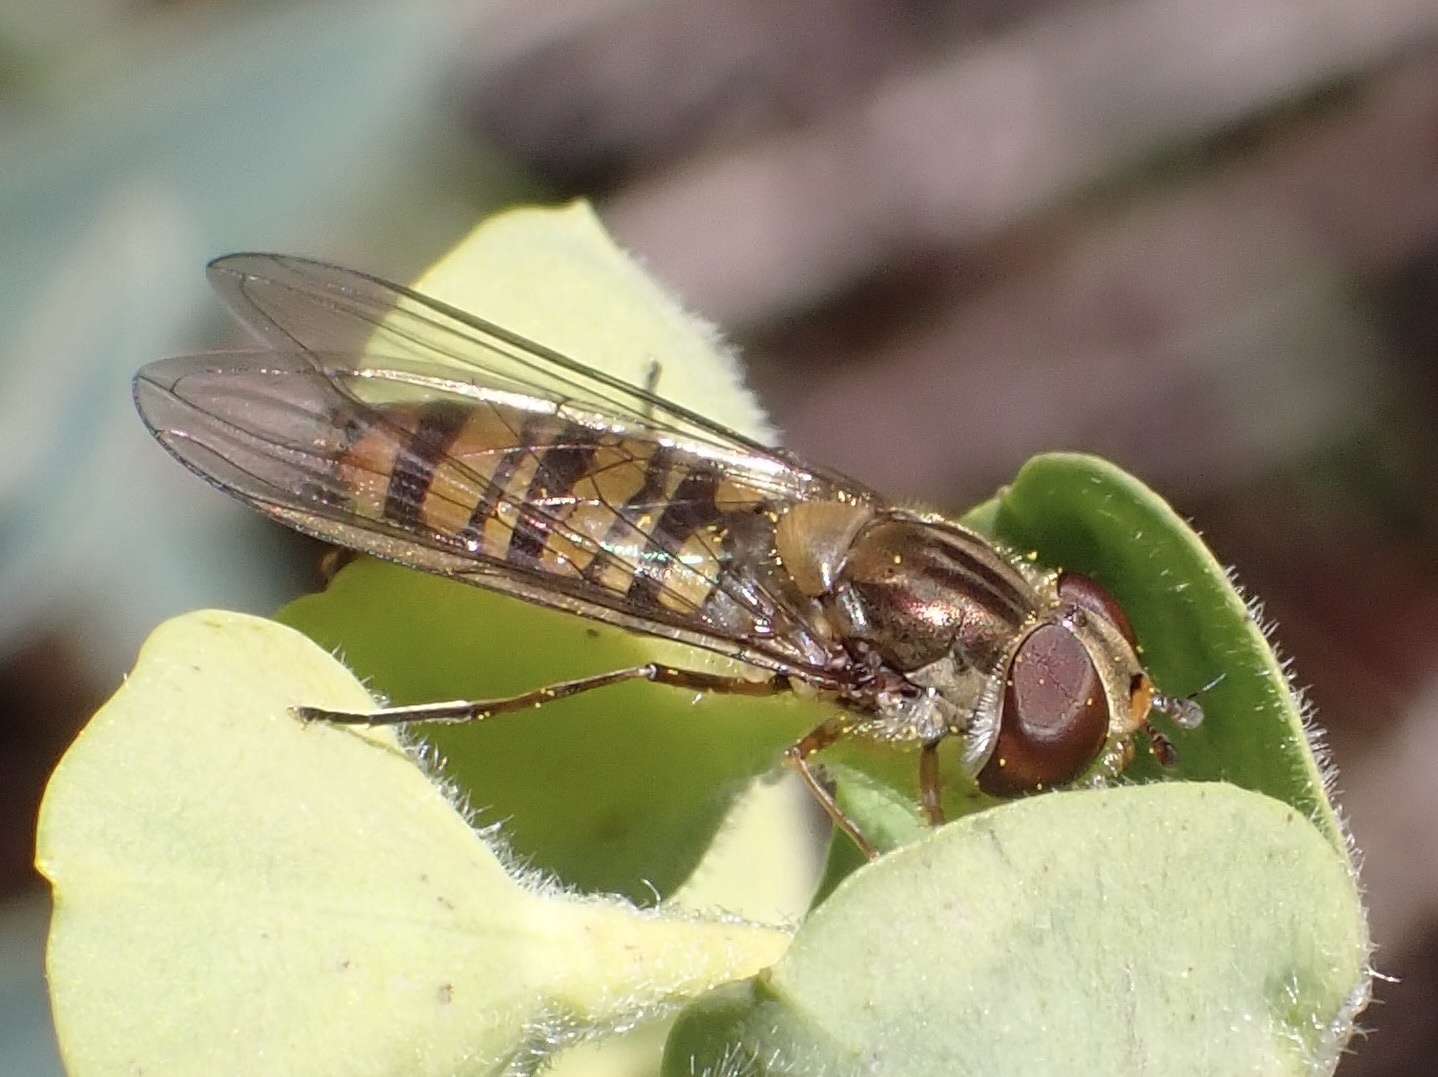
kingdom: Animalia
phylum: Arthropoda
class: Insecta
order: Diptera
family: Syrphidae
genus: Episyrphus
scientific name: Episyrphus balteatus
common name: Marmalade hoverfly
